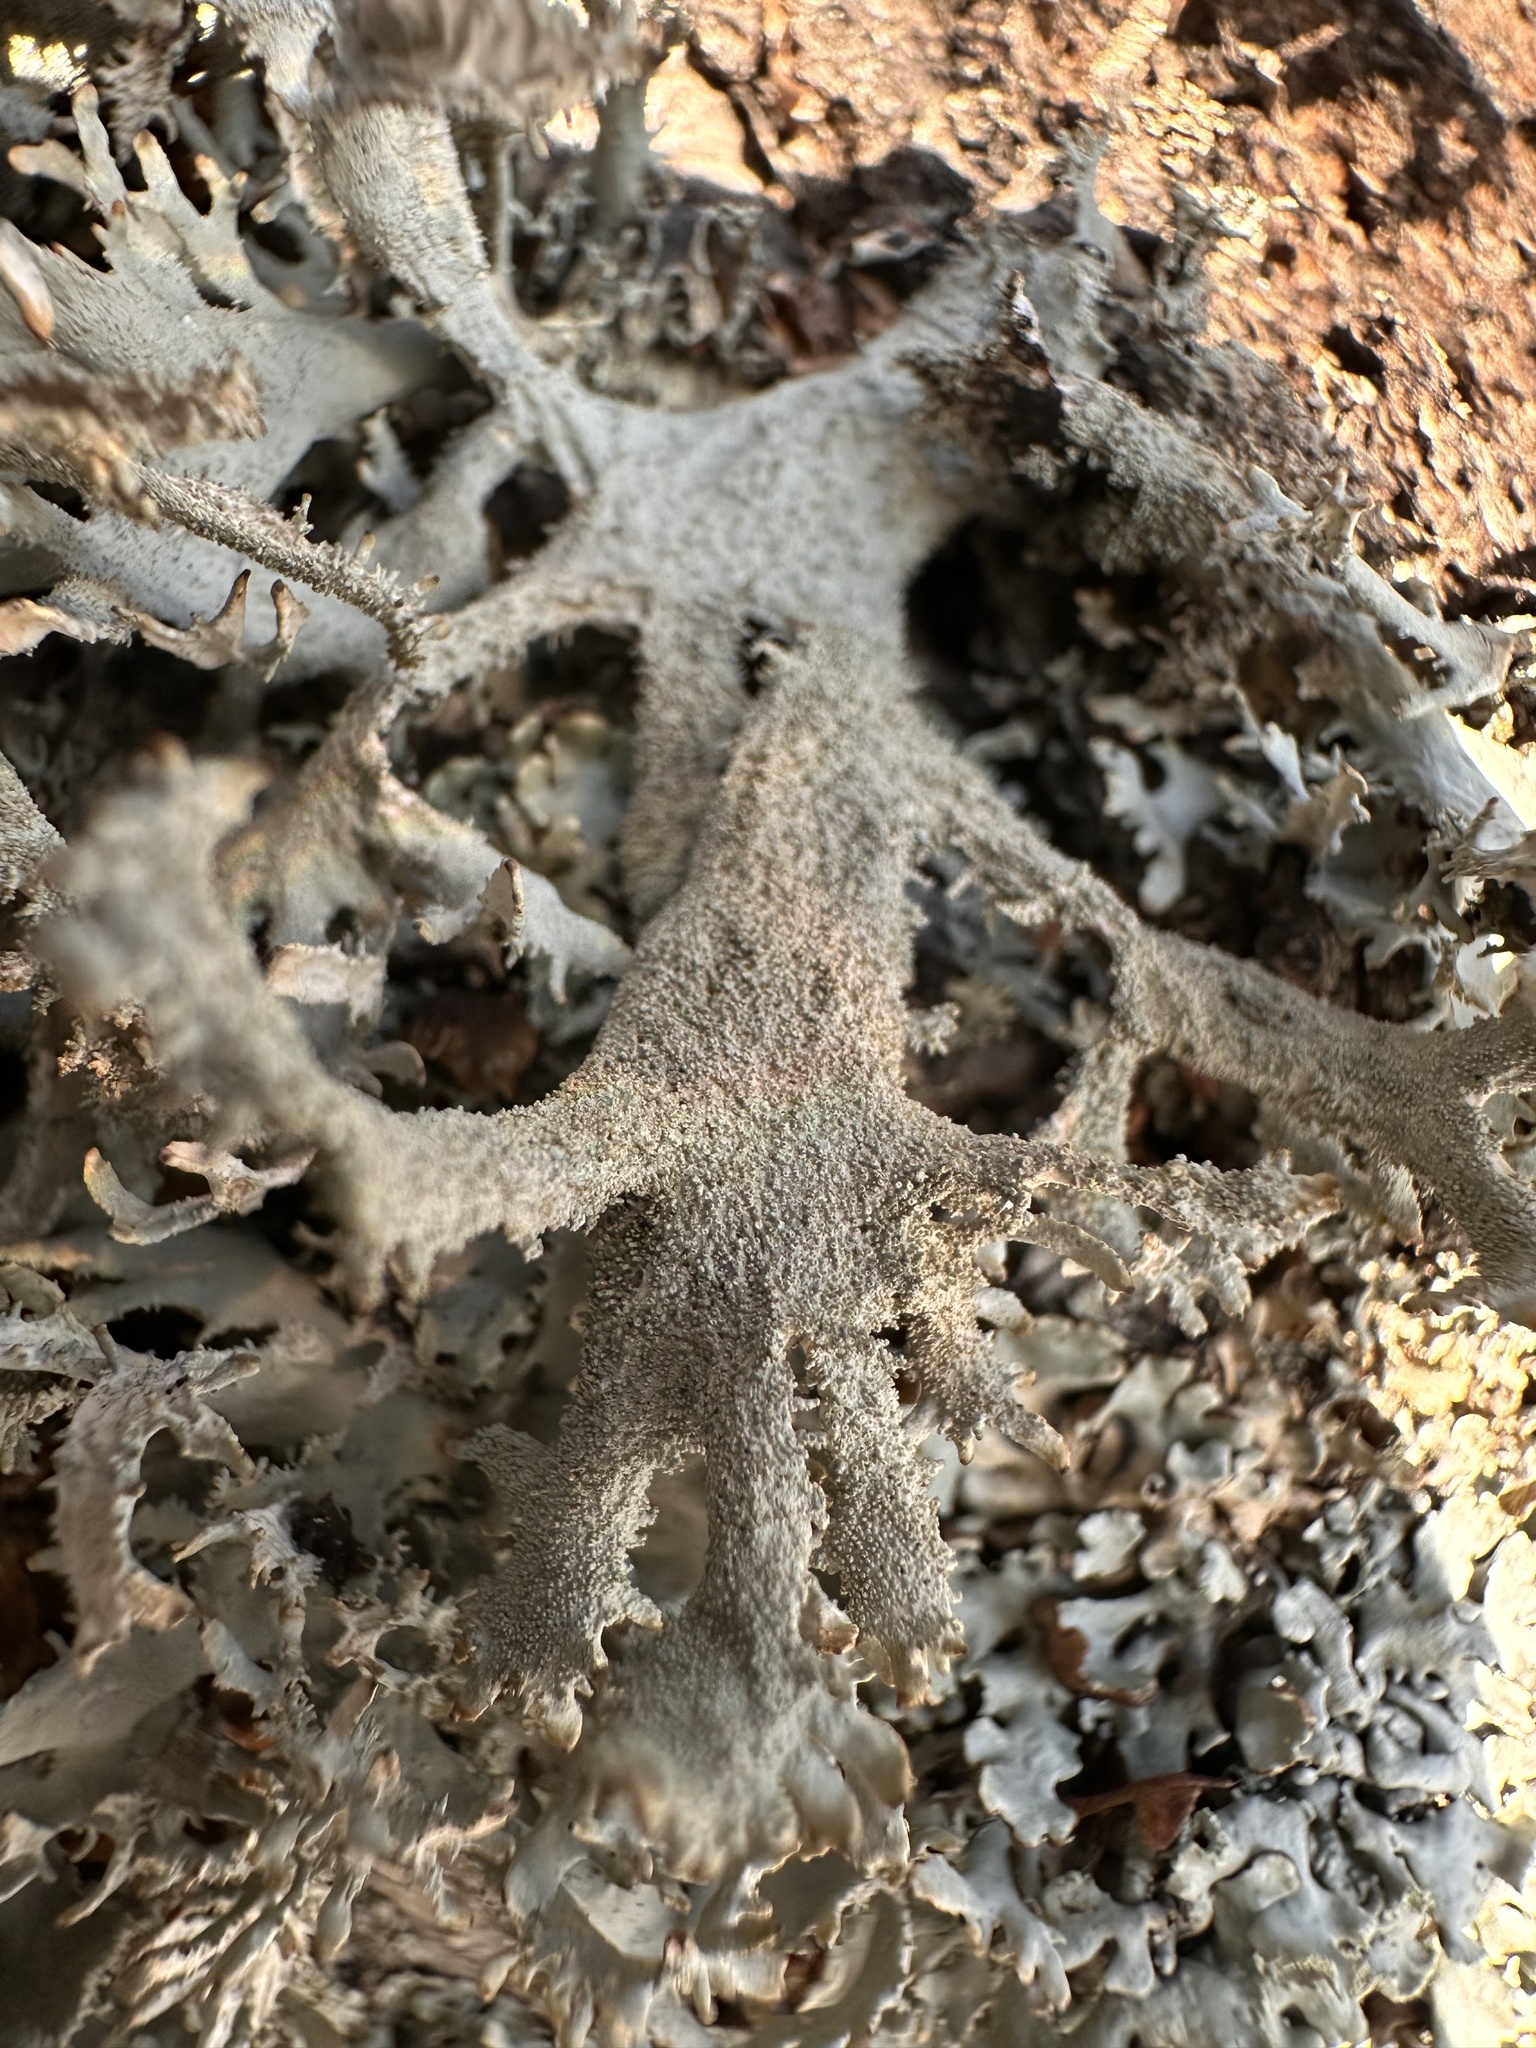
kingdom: Fungi
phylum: Ascomycota
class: Lecanoromycetes
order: Lecanorales
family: Parmeliaceae
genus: Pseudevernia
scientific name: Pseudevernia furfuracea
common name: Tree moss
